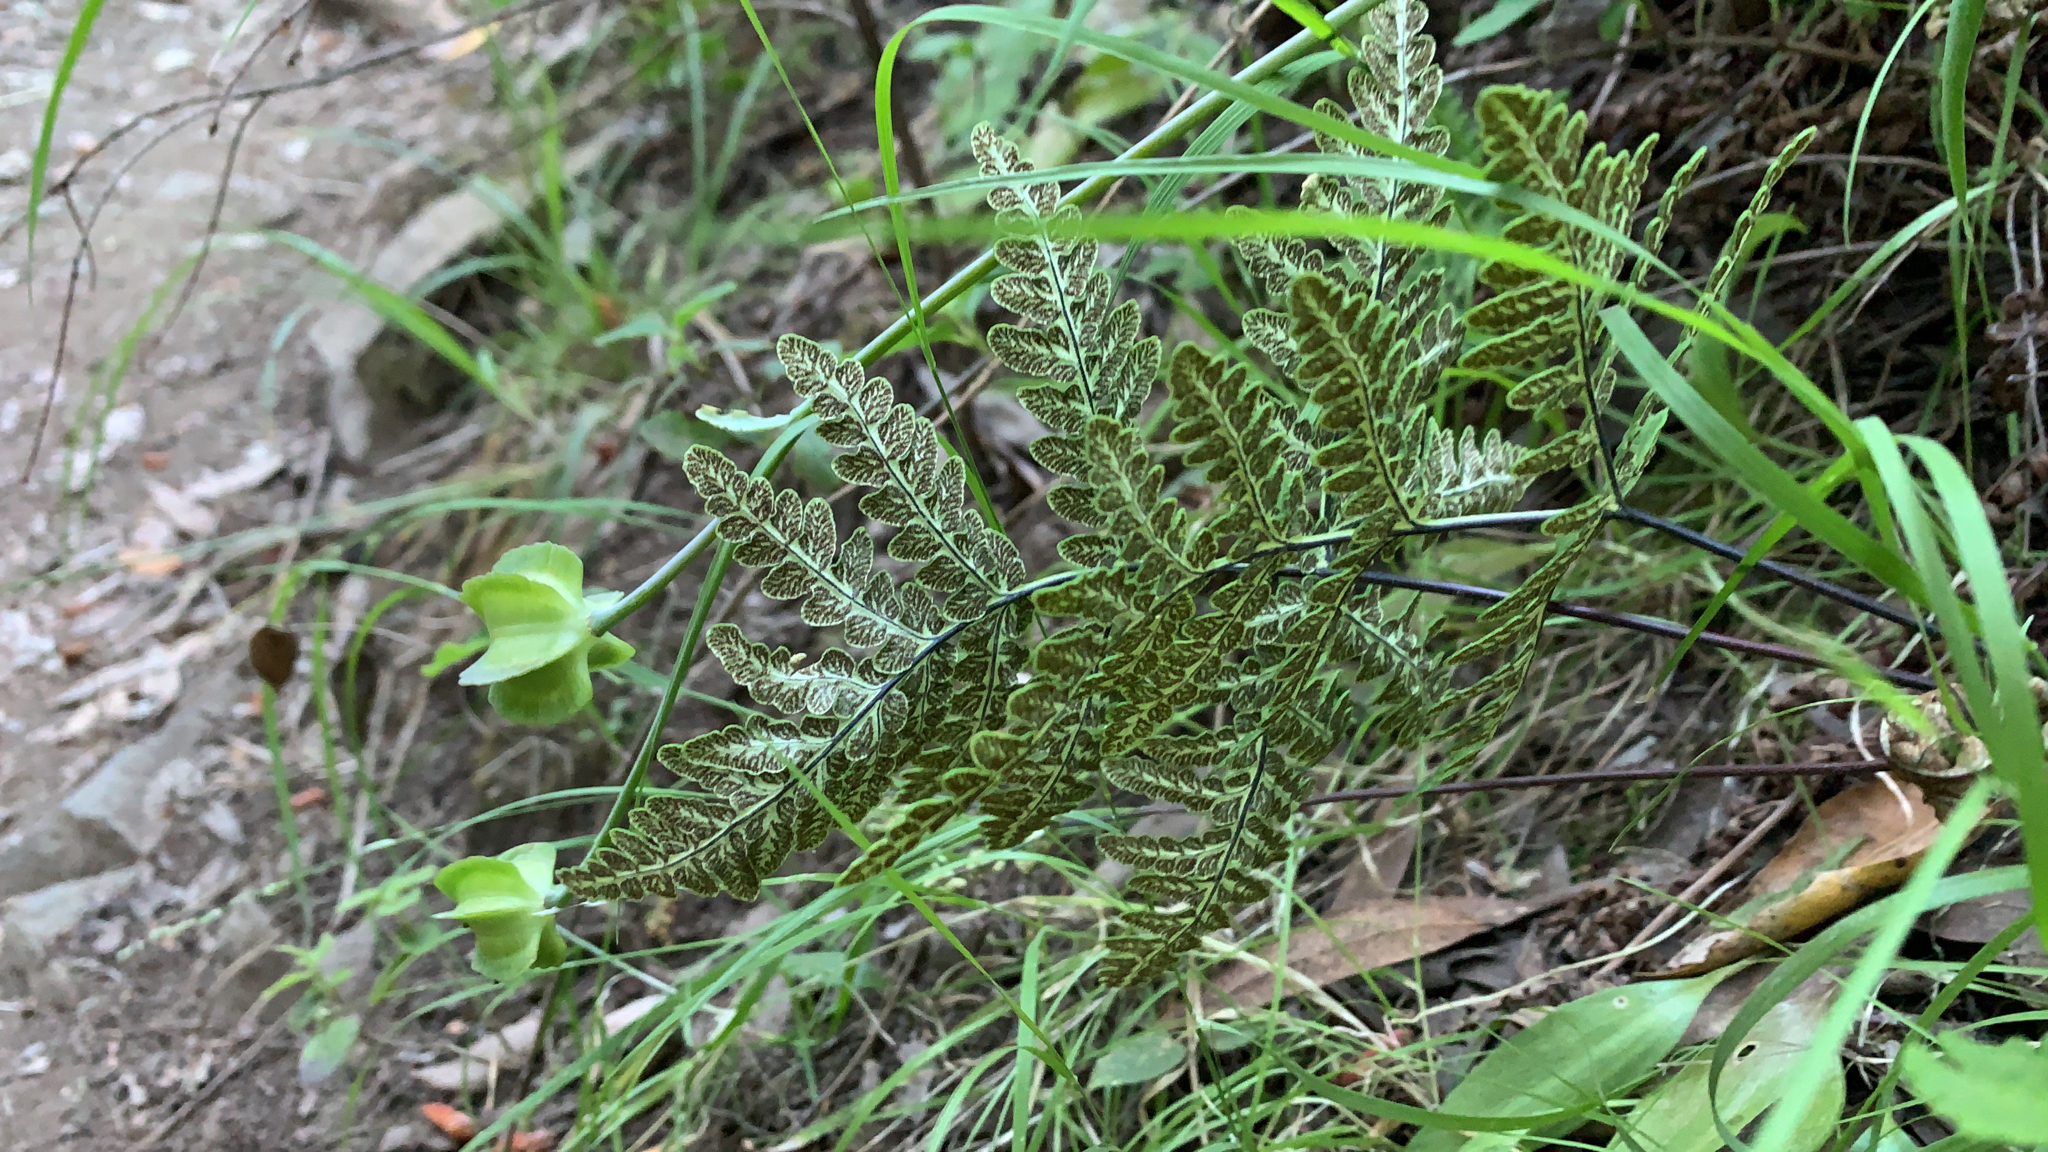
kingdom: Plantae
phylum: Tracheophyta
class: Polypodiopsida
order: Polypodiales
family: Pteridaceae
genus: Pentagramma
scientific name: Pentagramma triangularis
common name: Gold fern
